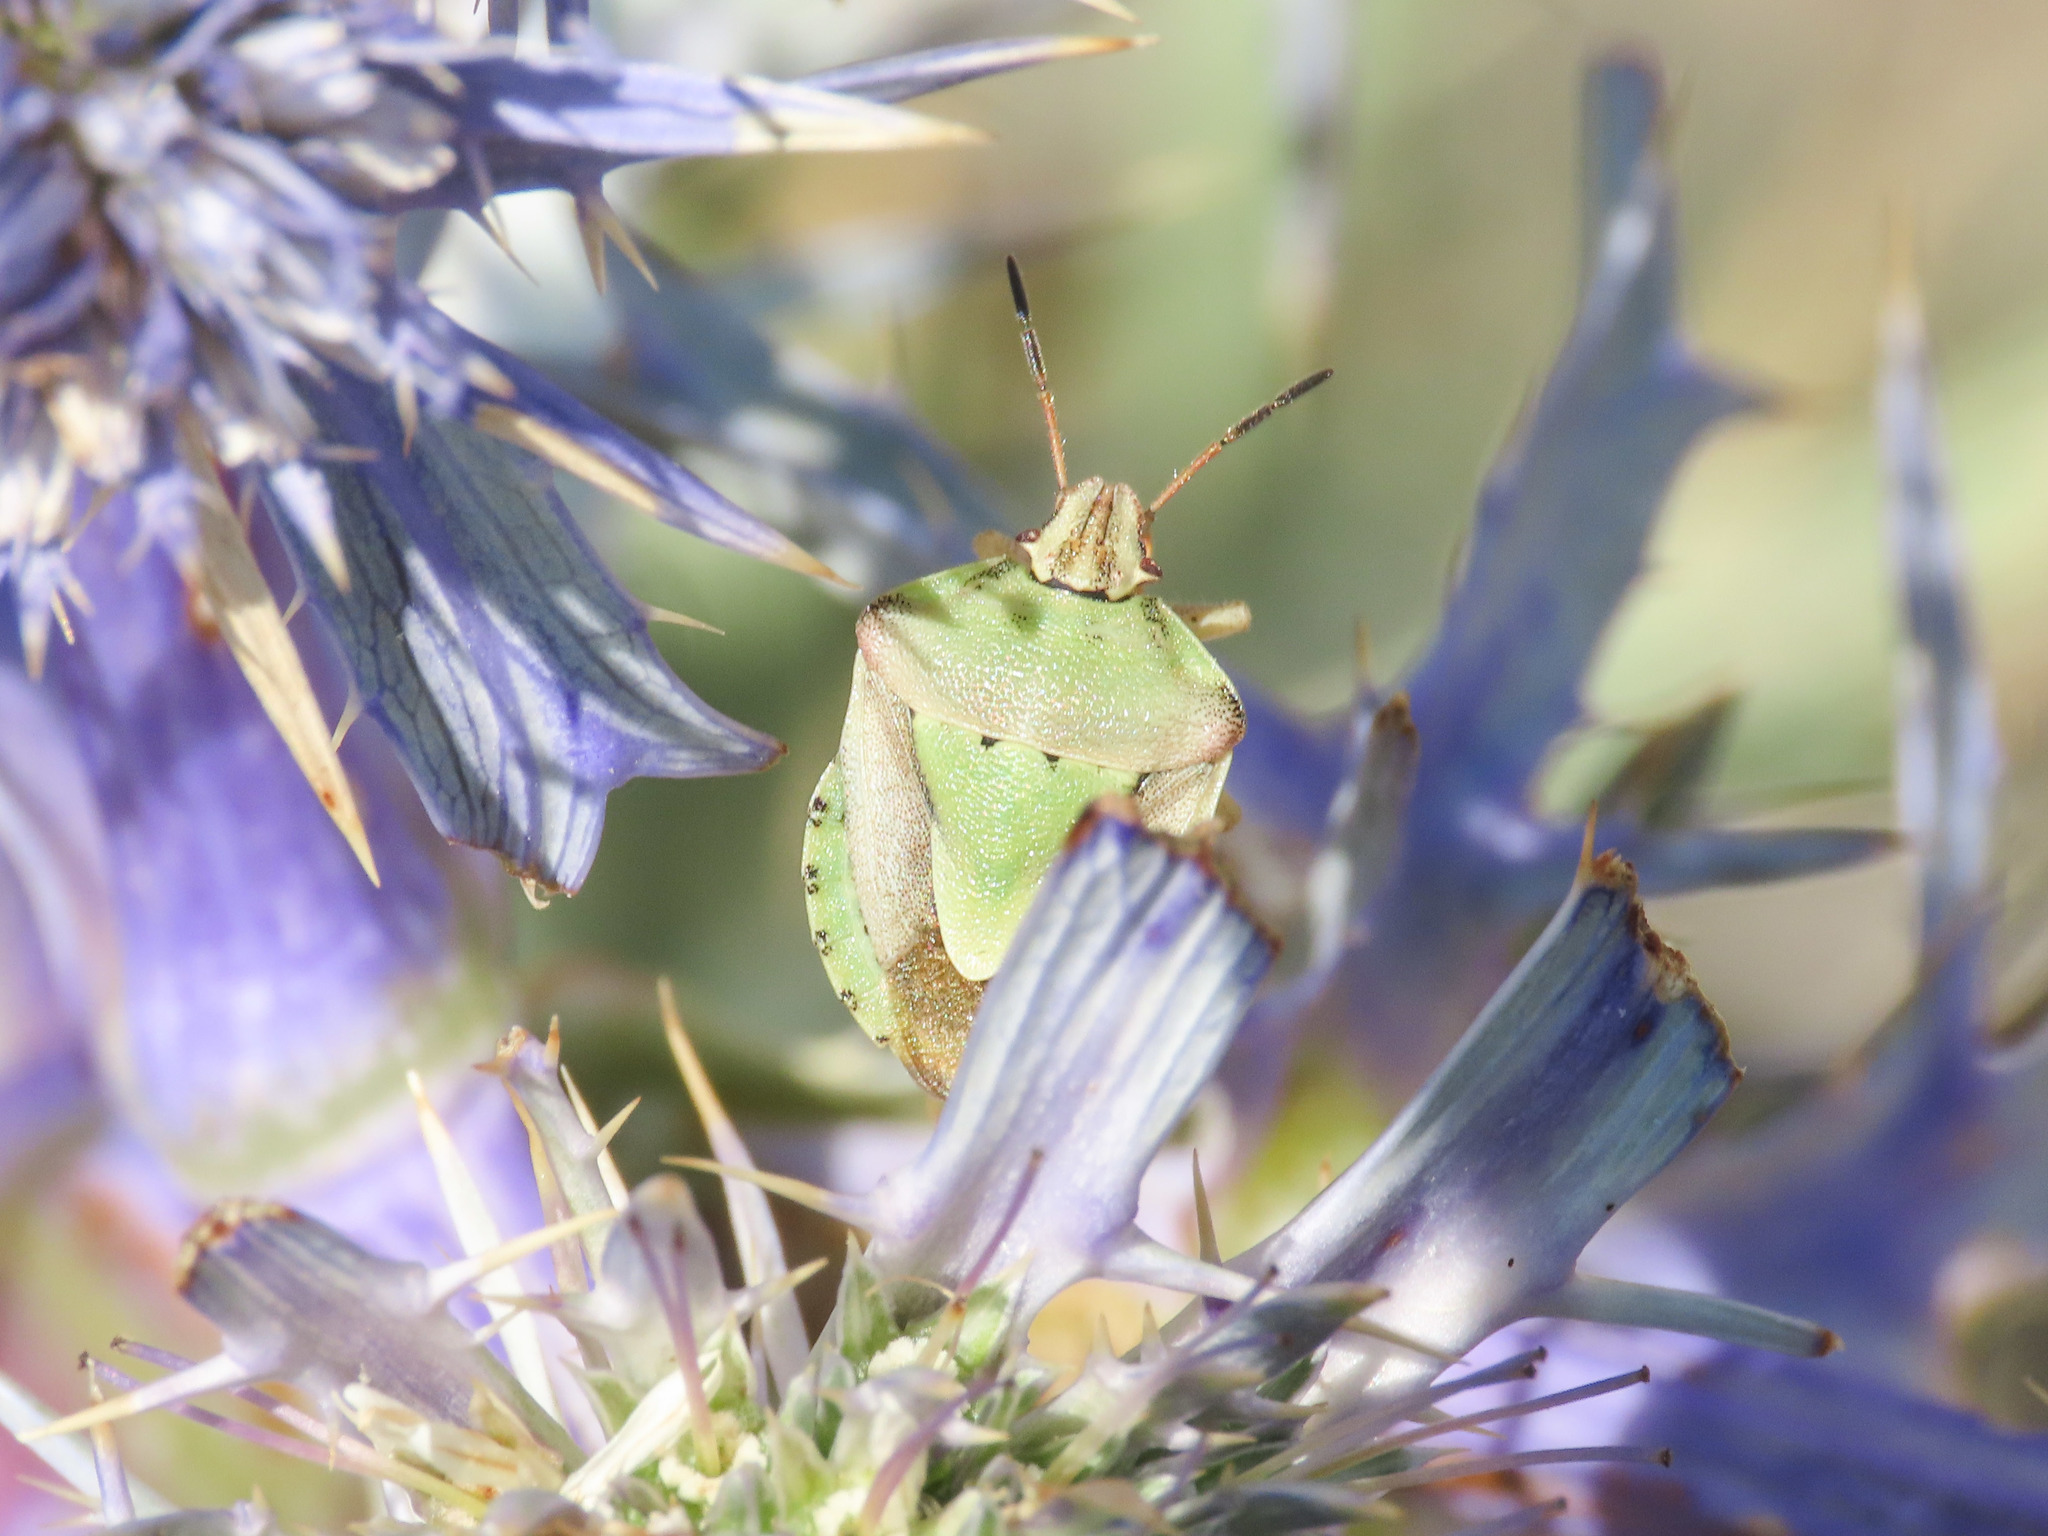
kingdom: Animalia
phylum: Arthropoda
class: Insecta
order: Hemiptera
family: Pentatomidae
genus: Antheminia
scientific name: Antheminia lunulata
